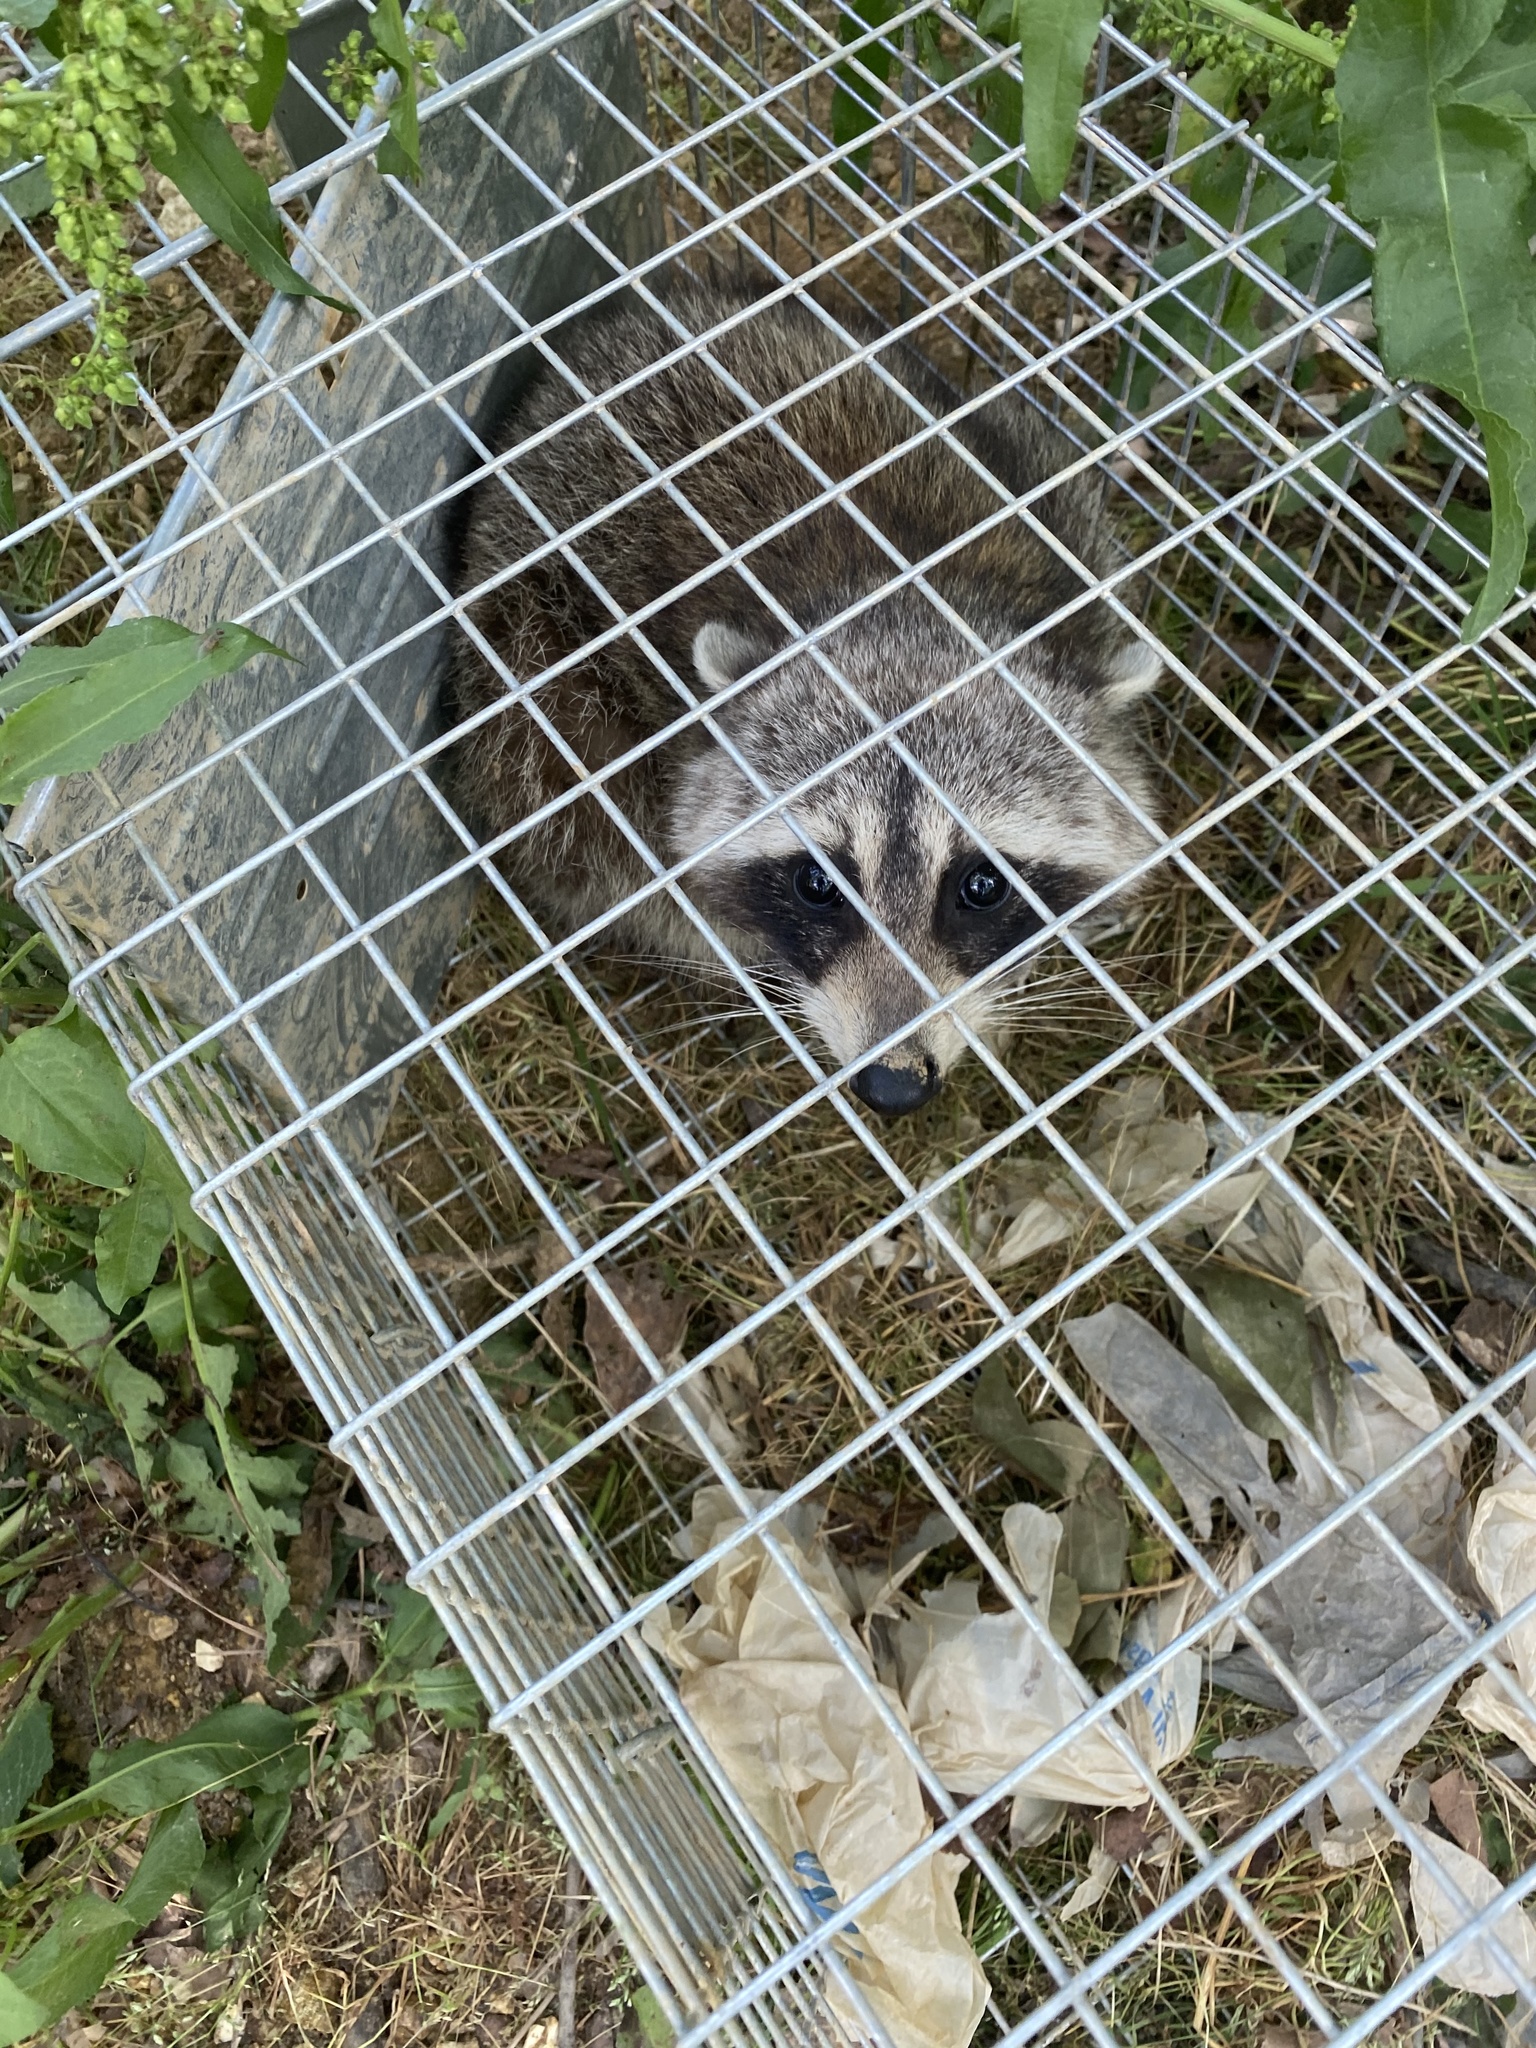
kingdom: Animalia
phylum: Chordata
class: Mammalia
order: Carnivora
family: Procyonidae
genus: Procyon
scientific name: Procyon lotor
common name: Raccoon
